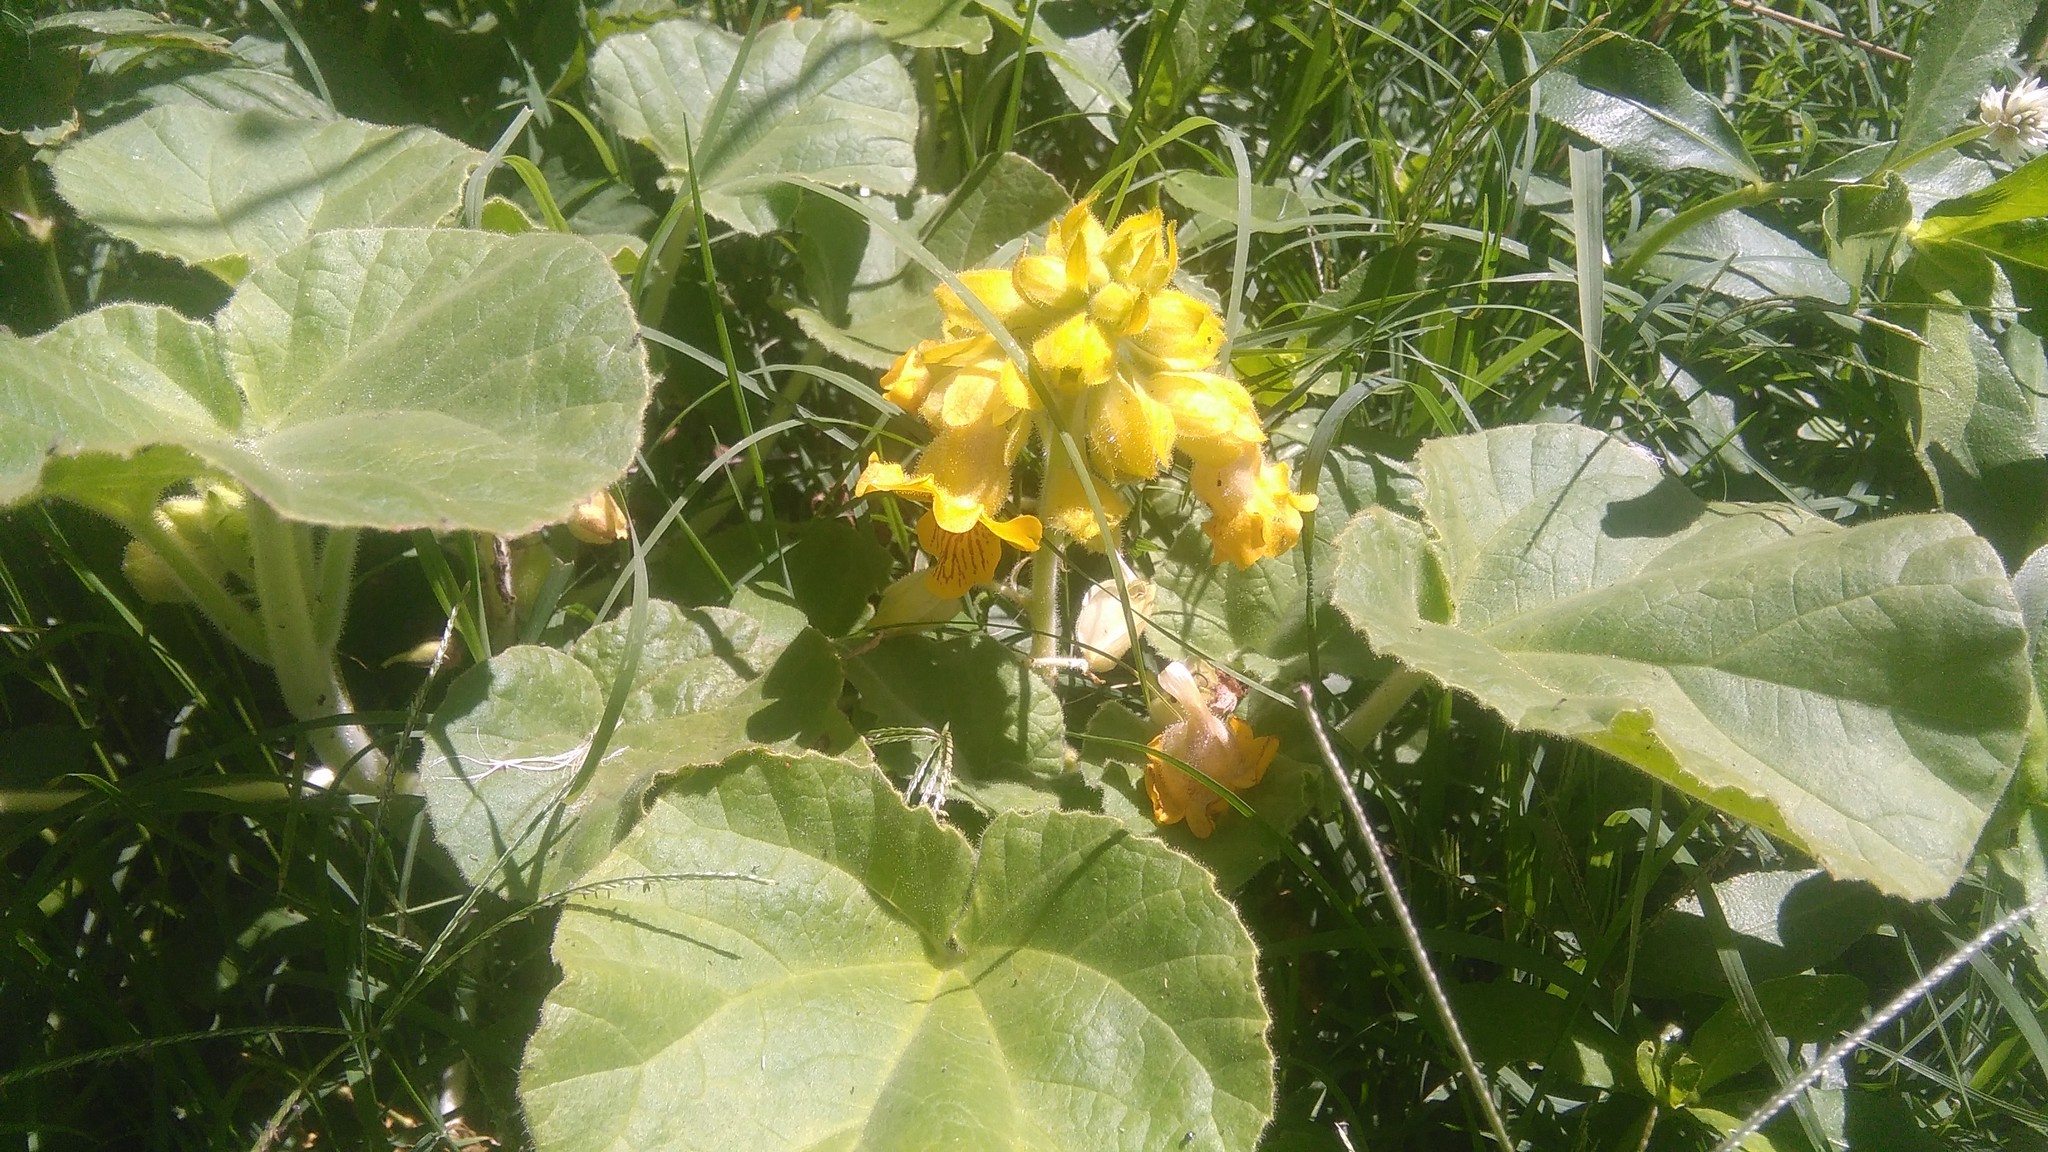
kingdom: Plantae
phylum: Tracheophyta
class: Magnoliopsida
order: Lamiales
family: Martyniaceae
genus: Ibicella
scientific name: Ibicella lutea
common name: Yellow unicorn-plant
